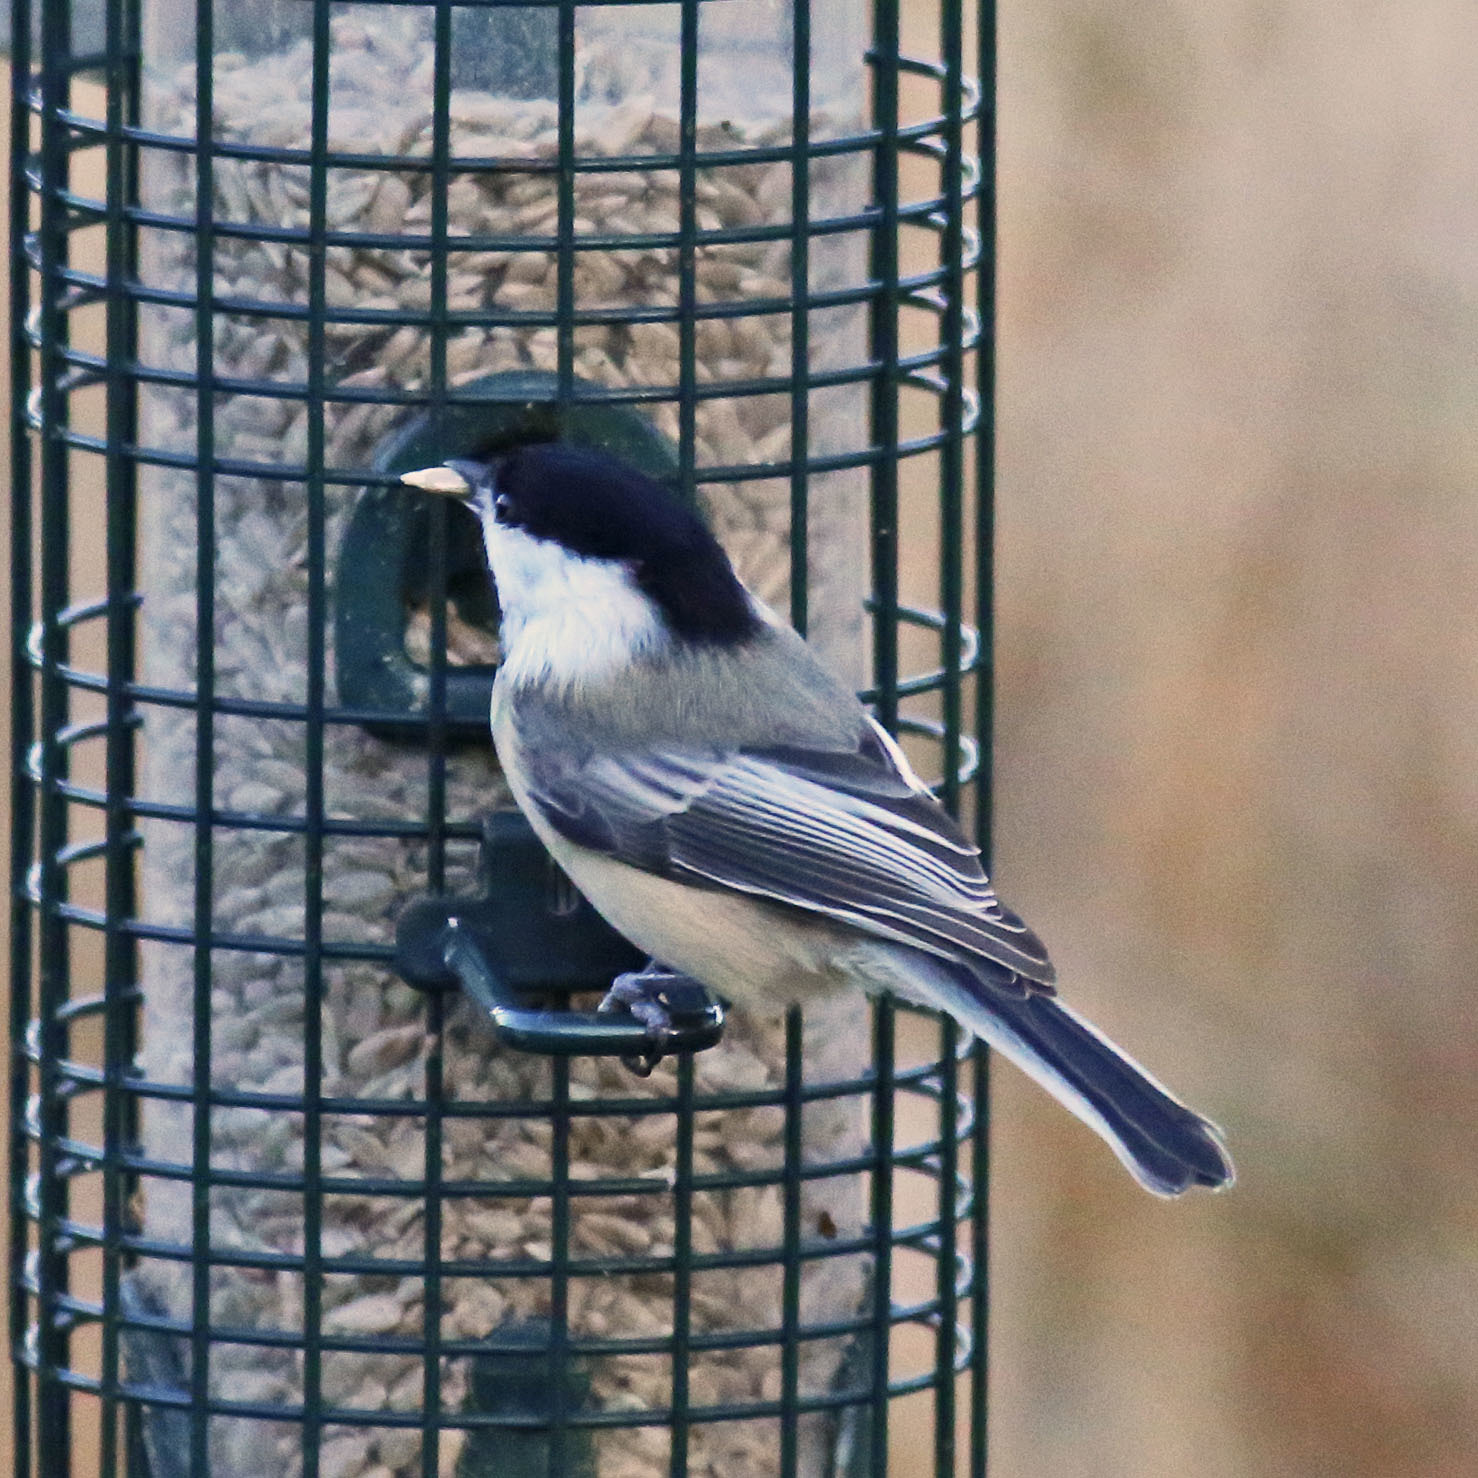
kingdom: Animalia
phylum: Chordata
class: Aves
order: Passeriformes
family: Paridae
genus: Poecile
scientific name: Poecile
